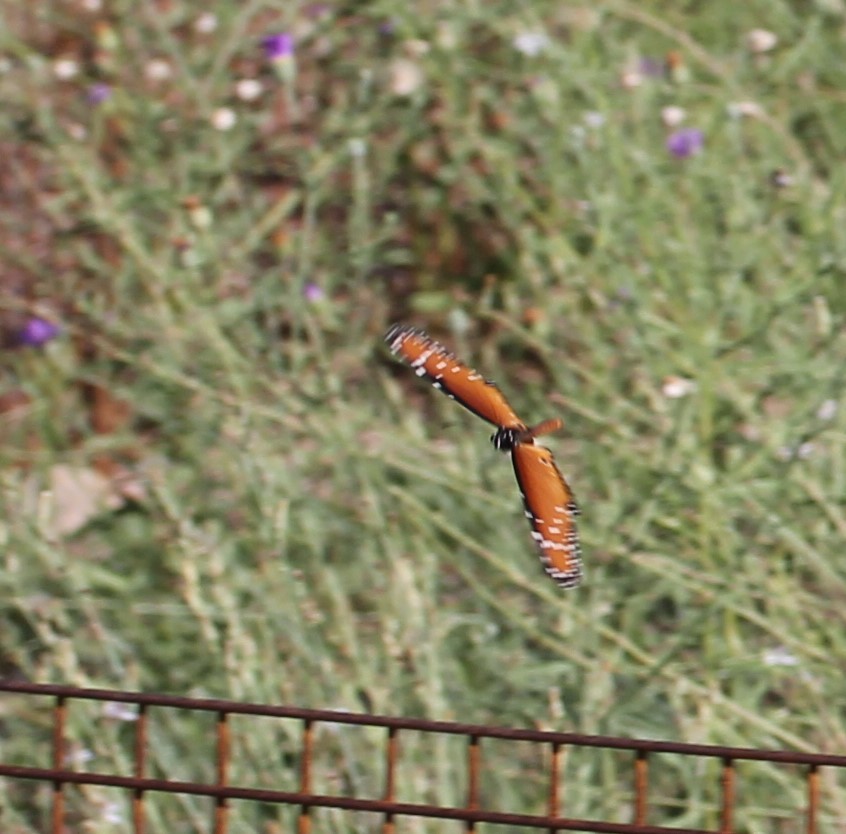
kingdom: Animalia
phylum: Arthropoda
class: Insecta
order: Lepidoptera
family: Nymphalidae
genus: Danaus
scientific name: Danaus gilippus
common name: Queen
